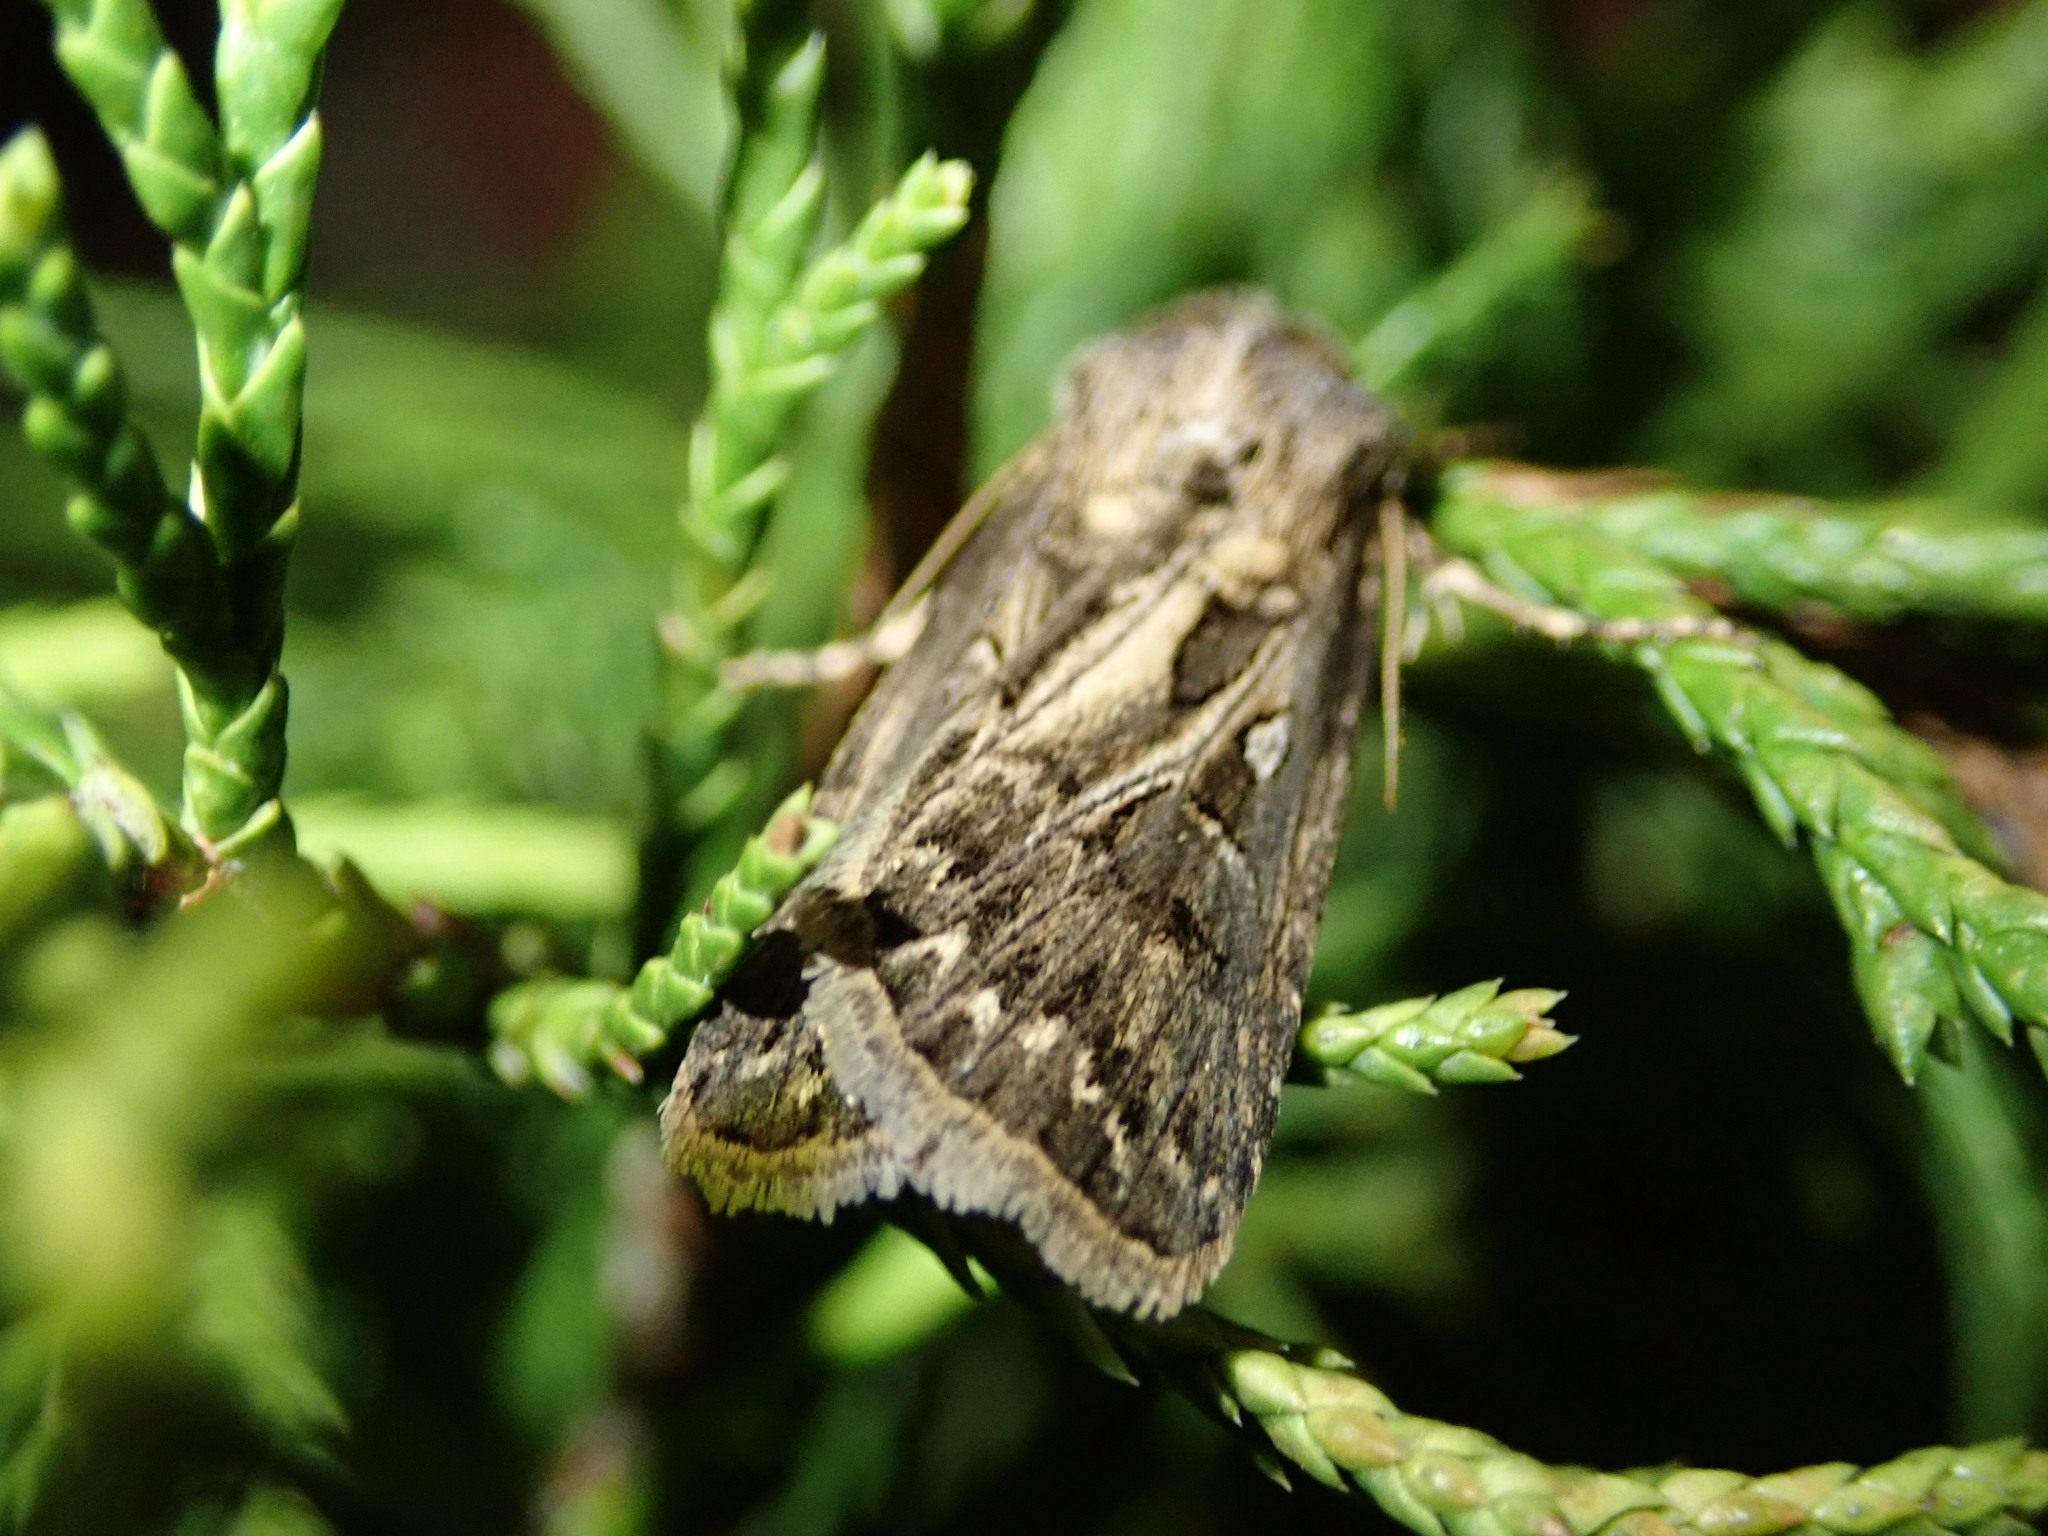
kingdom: Animalia
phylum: Arthropoda
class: Insecta
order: Lepidoptera
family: Noctuidae
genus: Agrotis
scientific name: Agrotis gladiaria
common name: Claybacked cutworm
